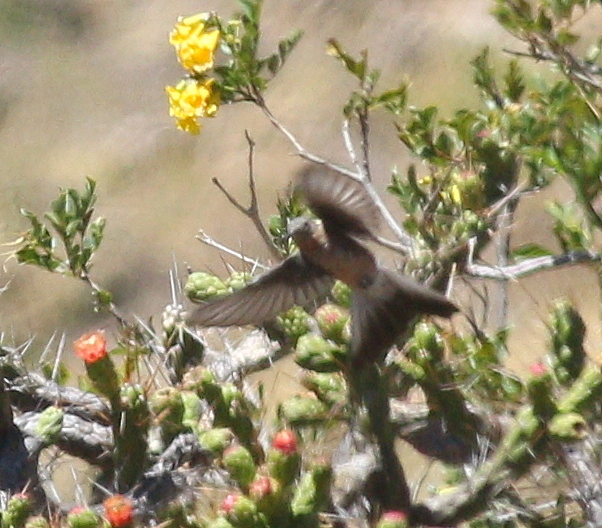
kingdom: Animalia
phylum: Chordata
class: Aves
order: Apodiformes
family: Trochilidae
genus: Patagona
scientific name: Patagona gigas
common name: Giant hummingbird
